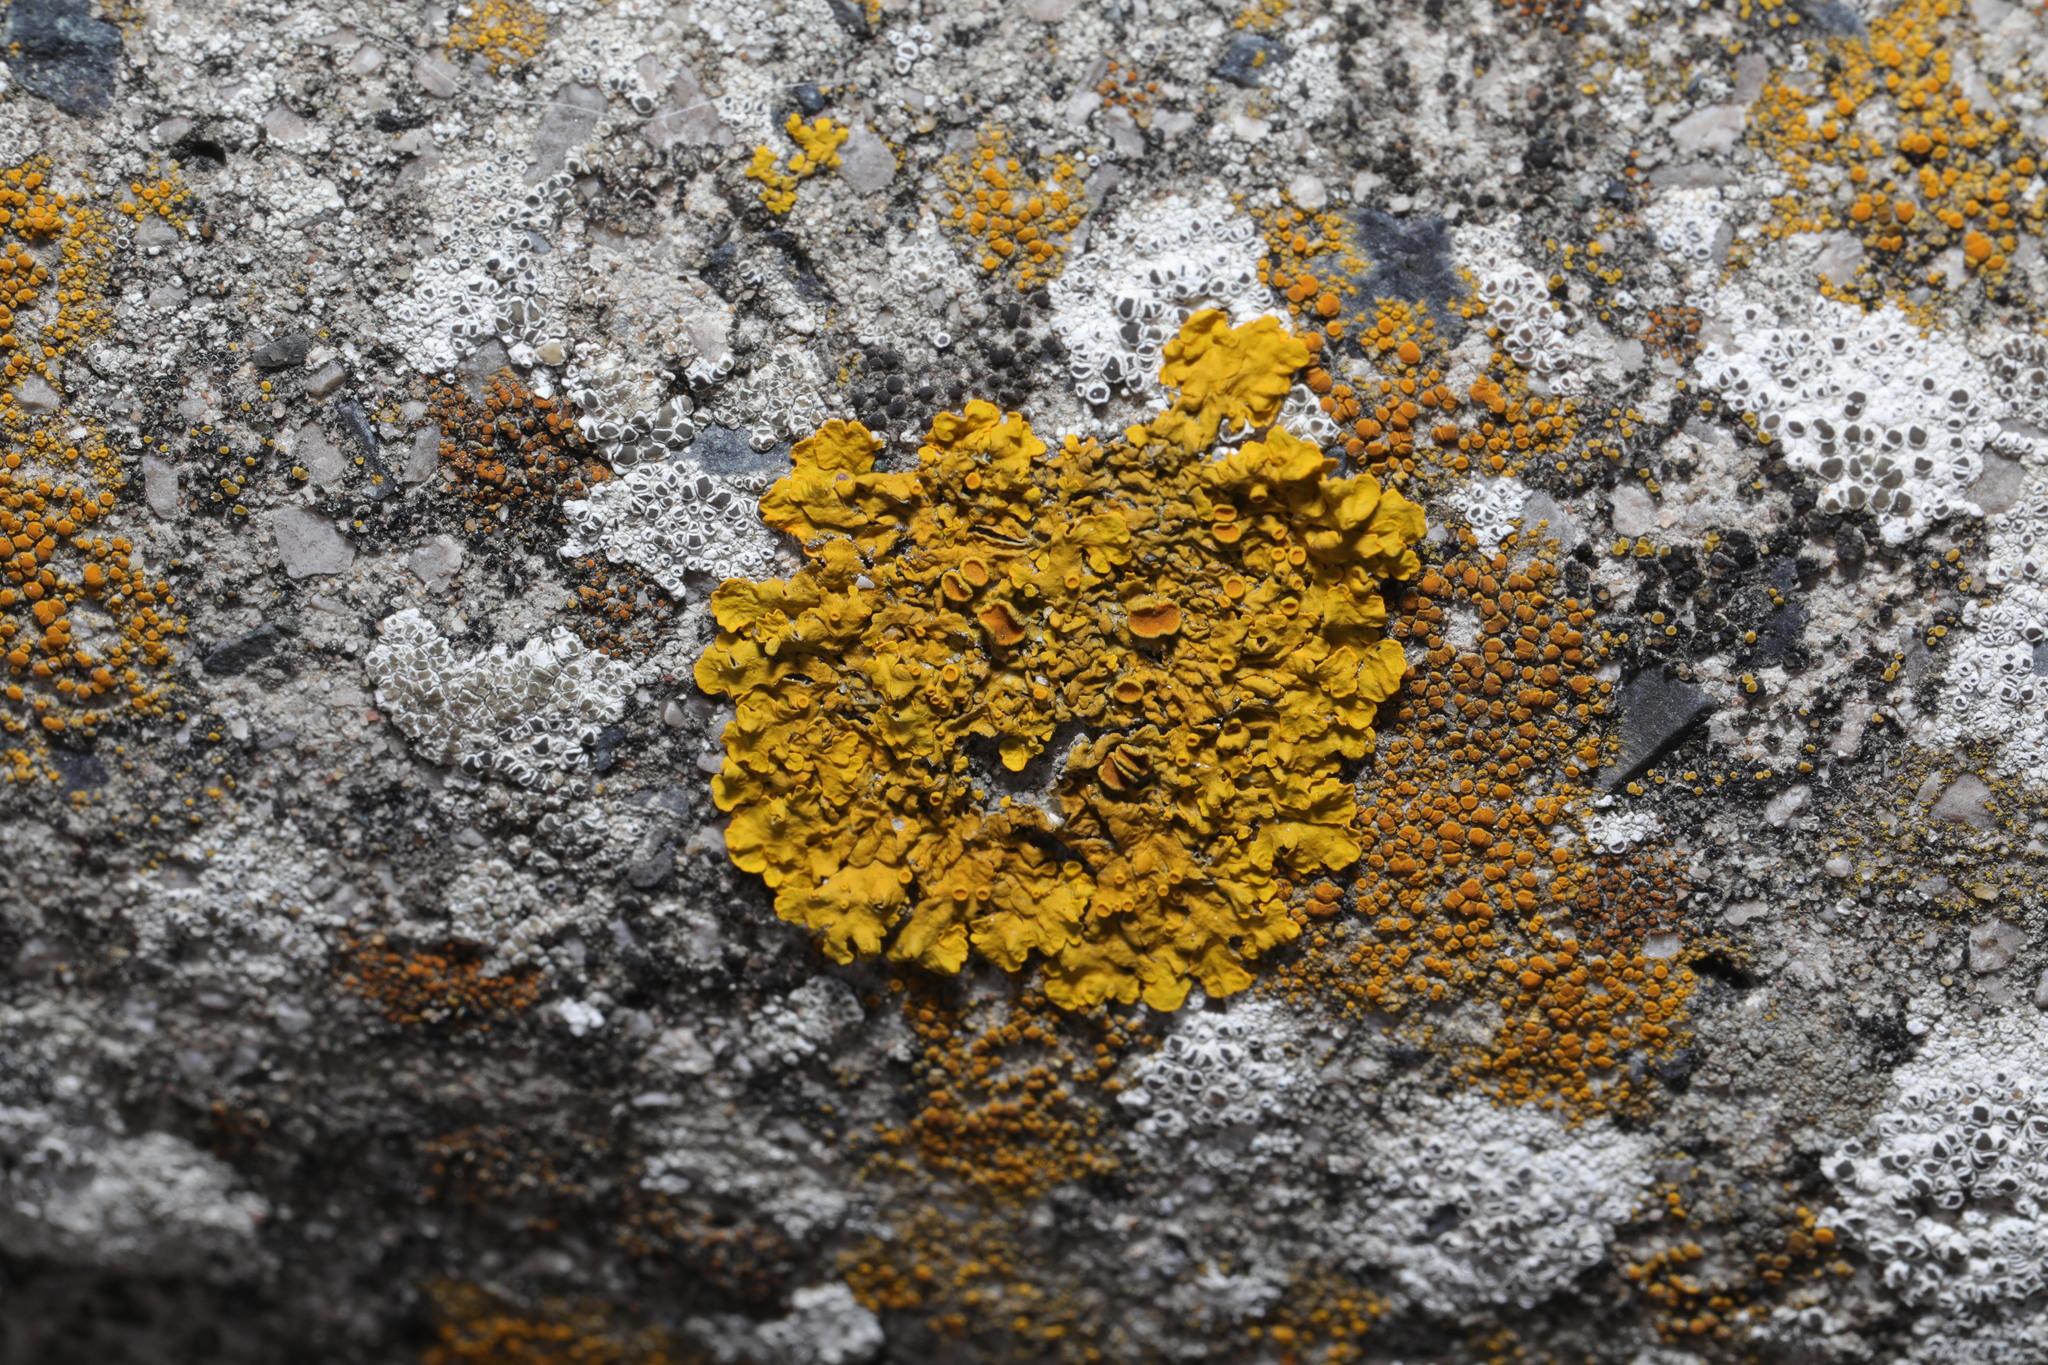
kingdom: Fungi
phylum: Ascomycota
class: Lecanoromycetes
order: Teloschistales
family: Teloschistaceae
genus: Xanthoria
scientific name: Xanthoria parietina
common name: Common orange lichen
